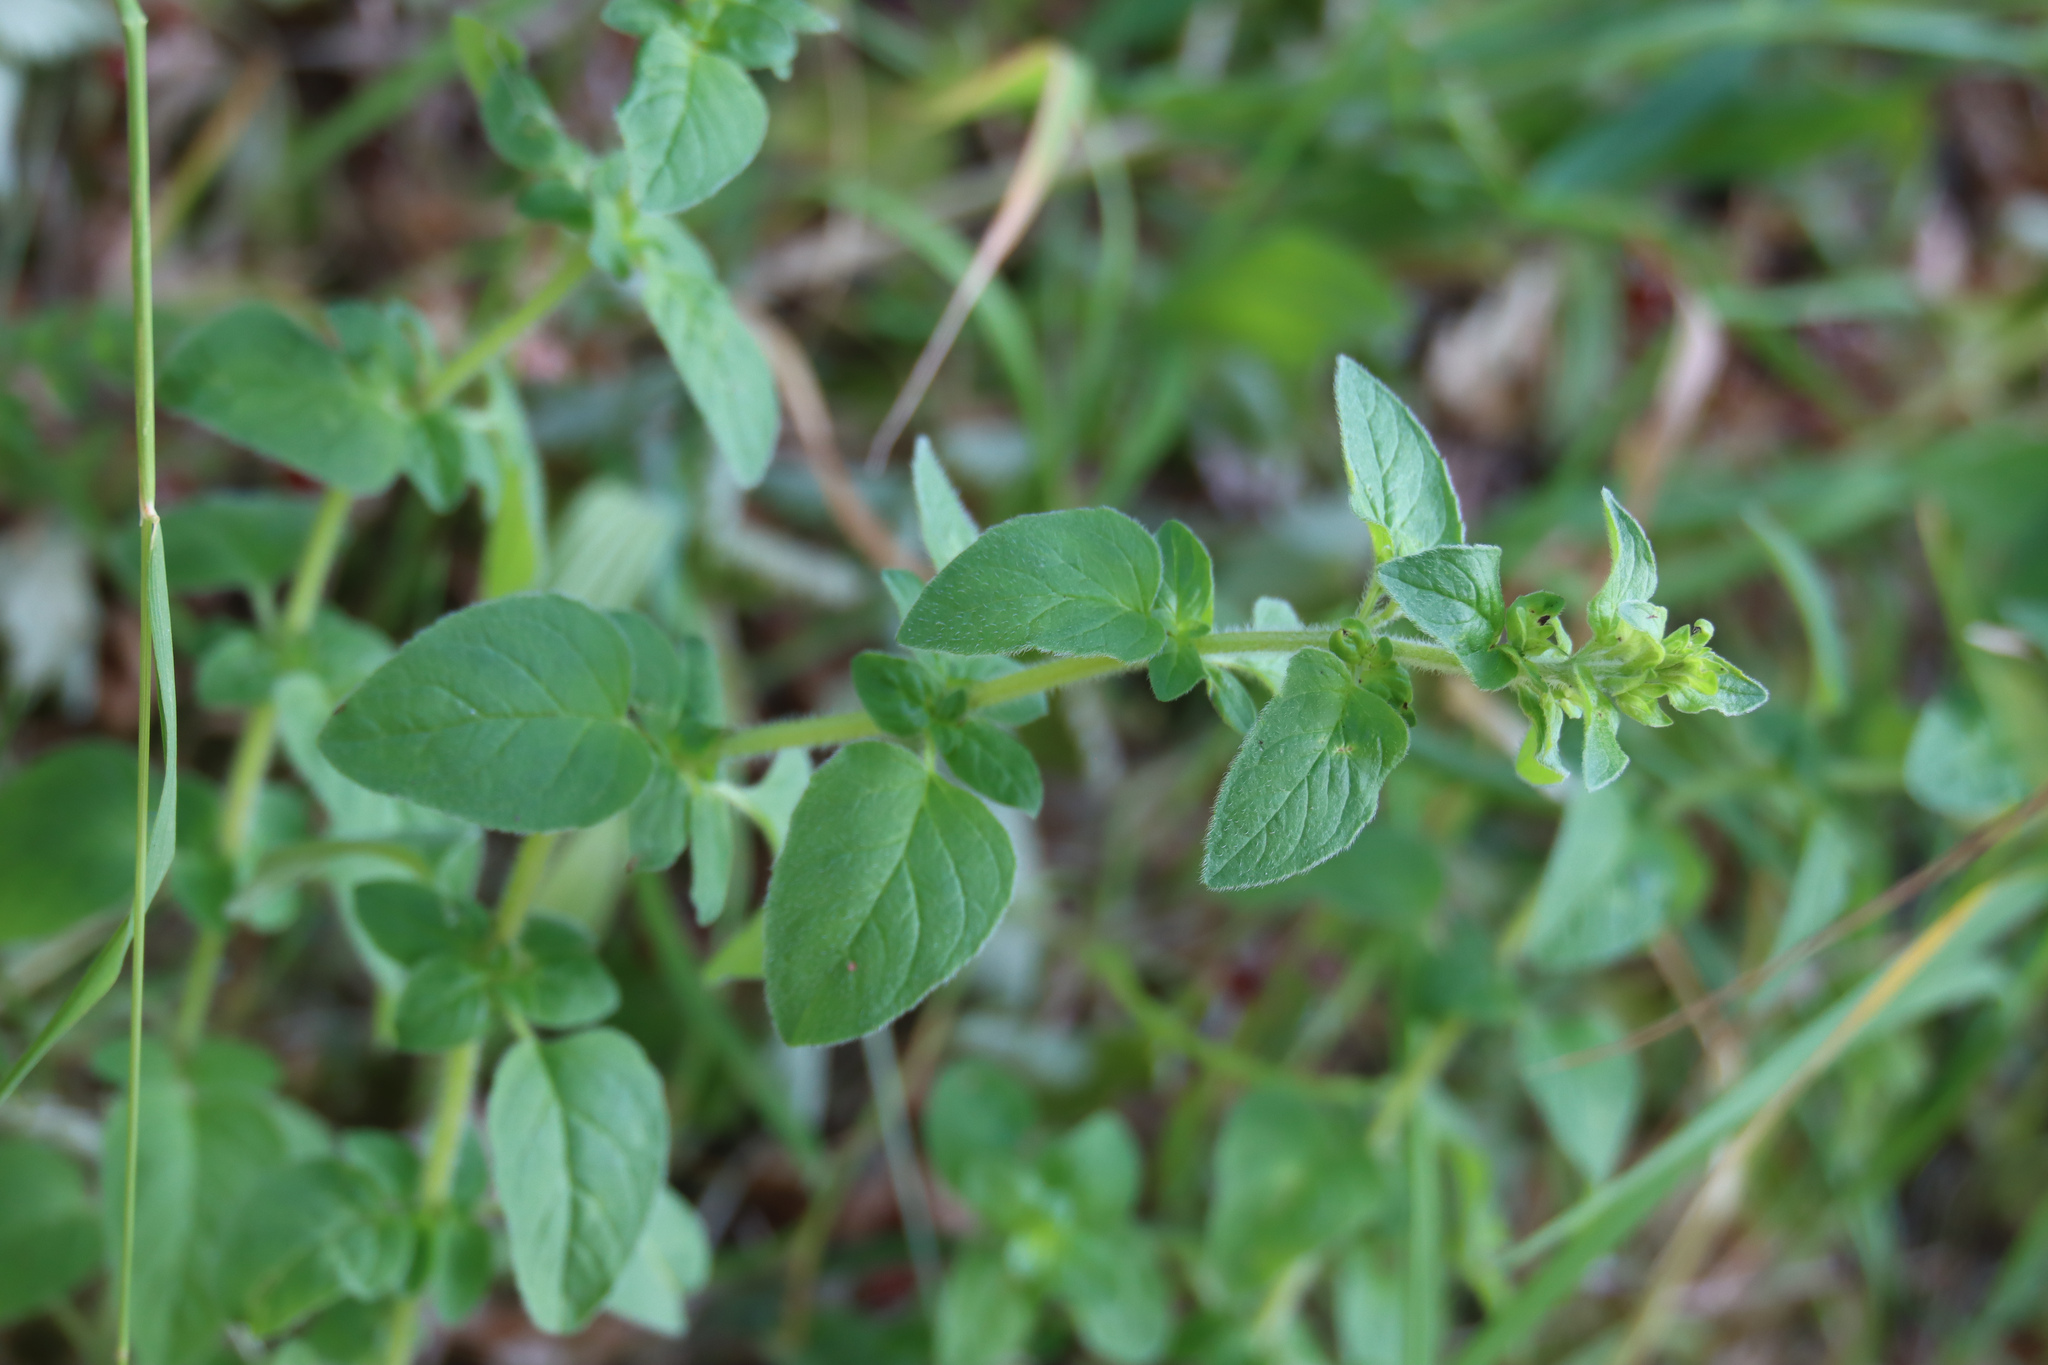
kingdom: Plantae
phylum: Tracheophyta
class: Magnoliopsida
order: Lamiales
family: Lamiaceae
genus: Origanum
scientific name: Origanum vulgare
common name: Wild marjoram
